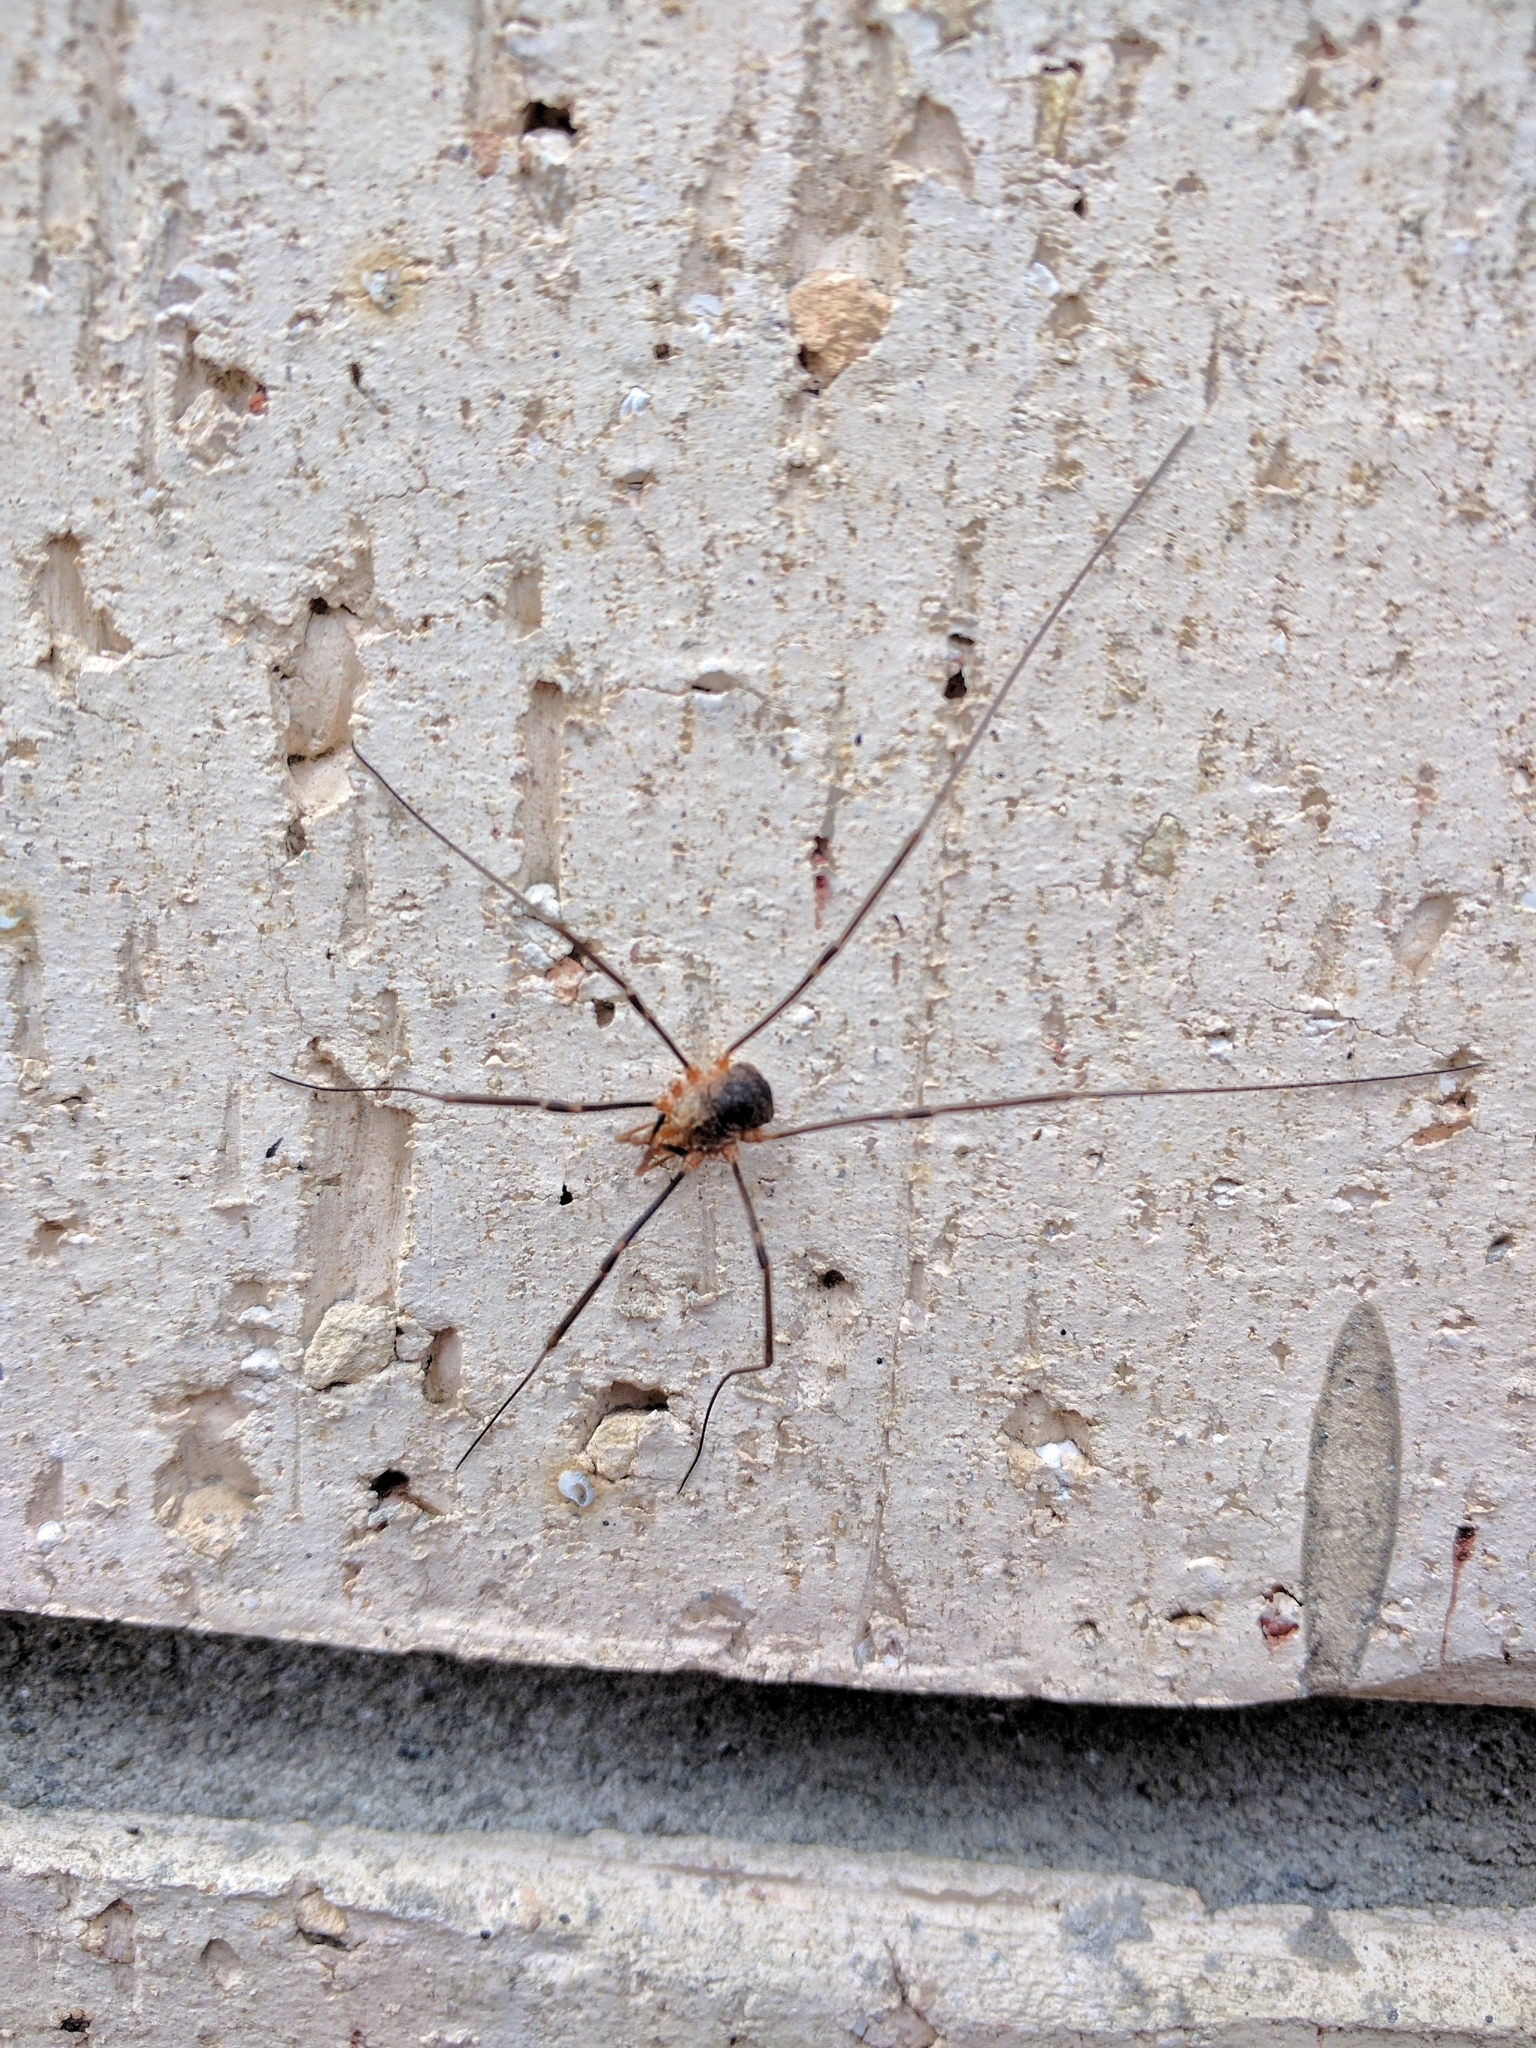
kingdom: Animalia
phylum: Arthropoda
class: Arachnida
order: Opiliones
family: Phalangiidae
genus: Phalangium
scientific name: Phalangium opilio
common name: Daddy longleg
